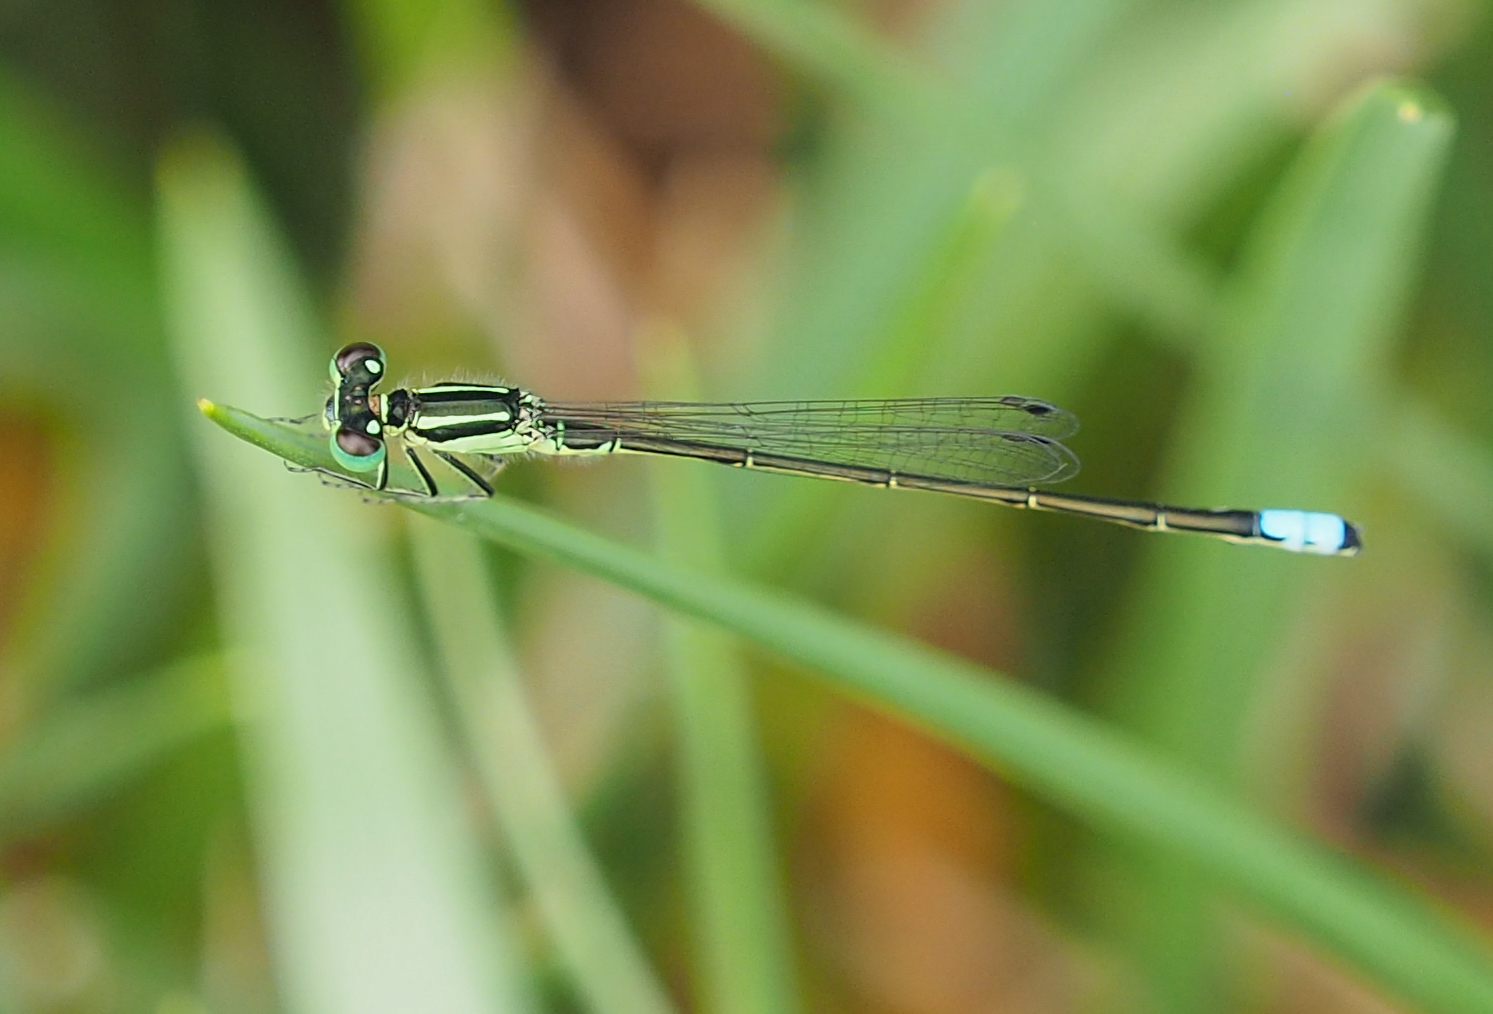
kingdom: Animalia
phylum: Arthropoda
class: Insecta
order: Odonata
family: Coenagrionidae
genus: Ischnura
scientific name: Ischnura verticalis
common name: Eastern forktail
